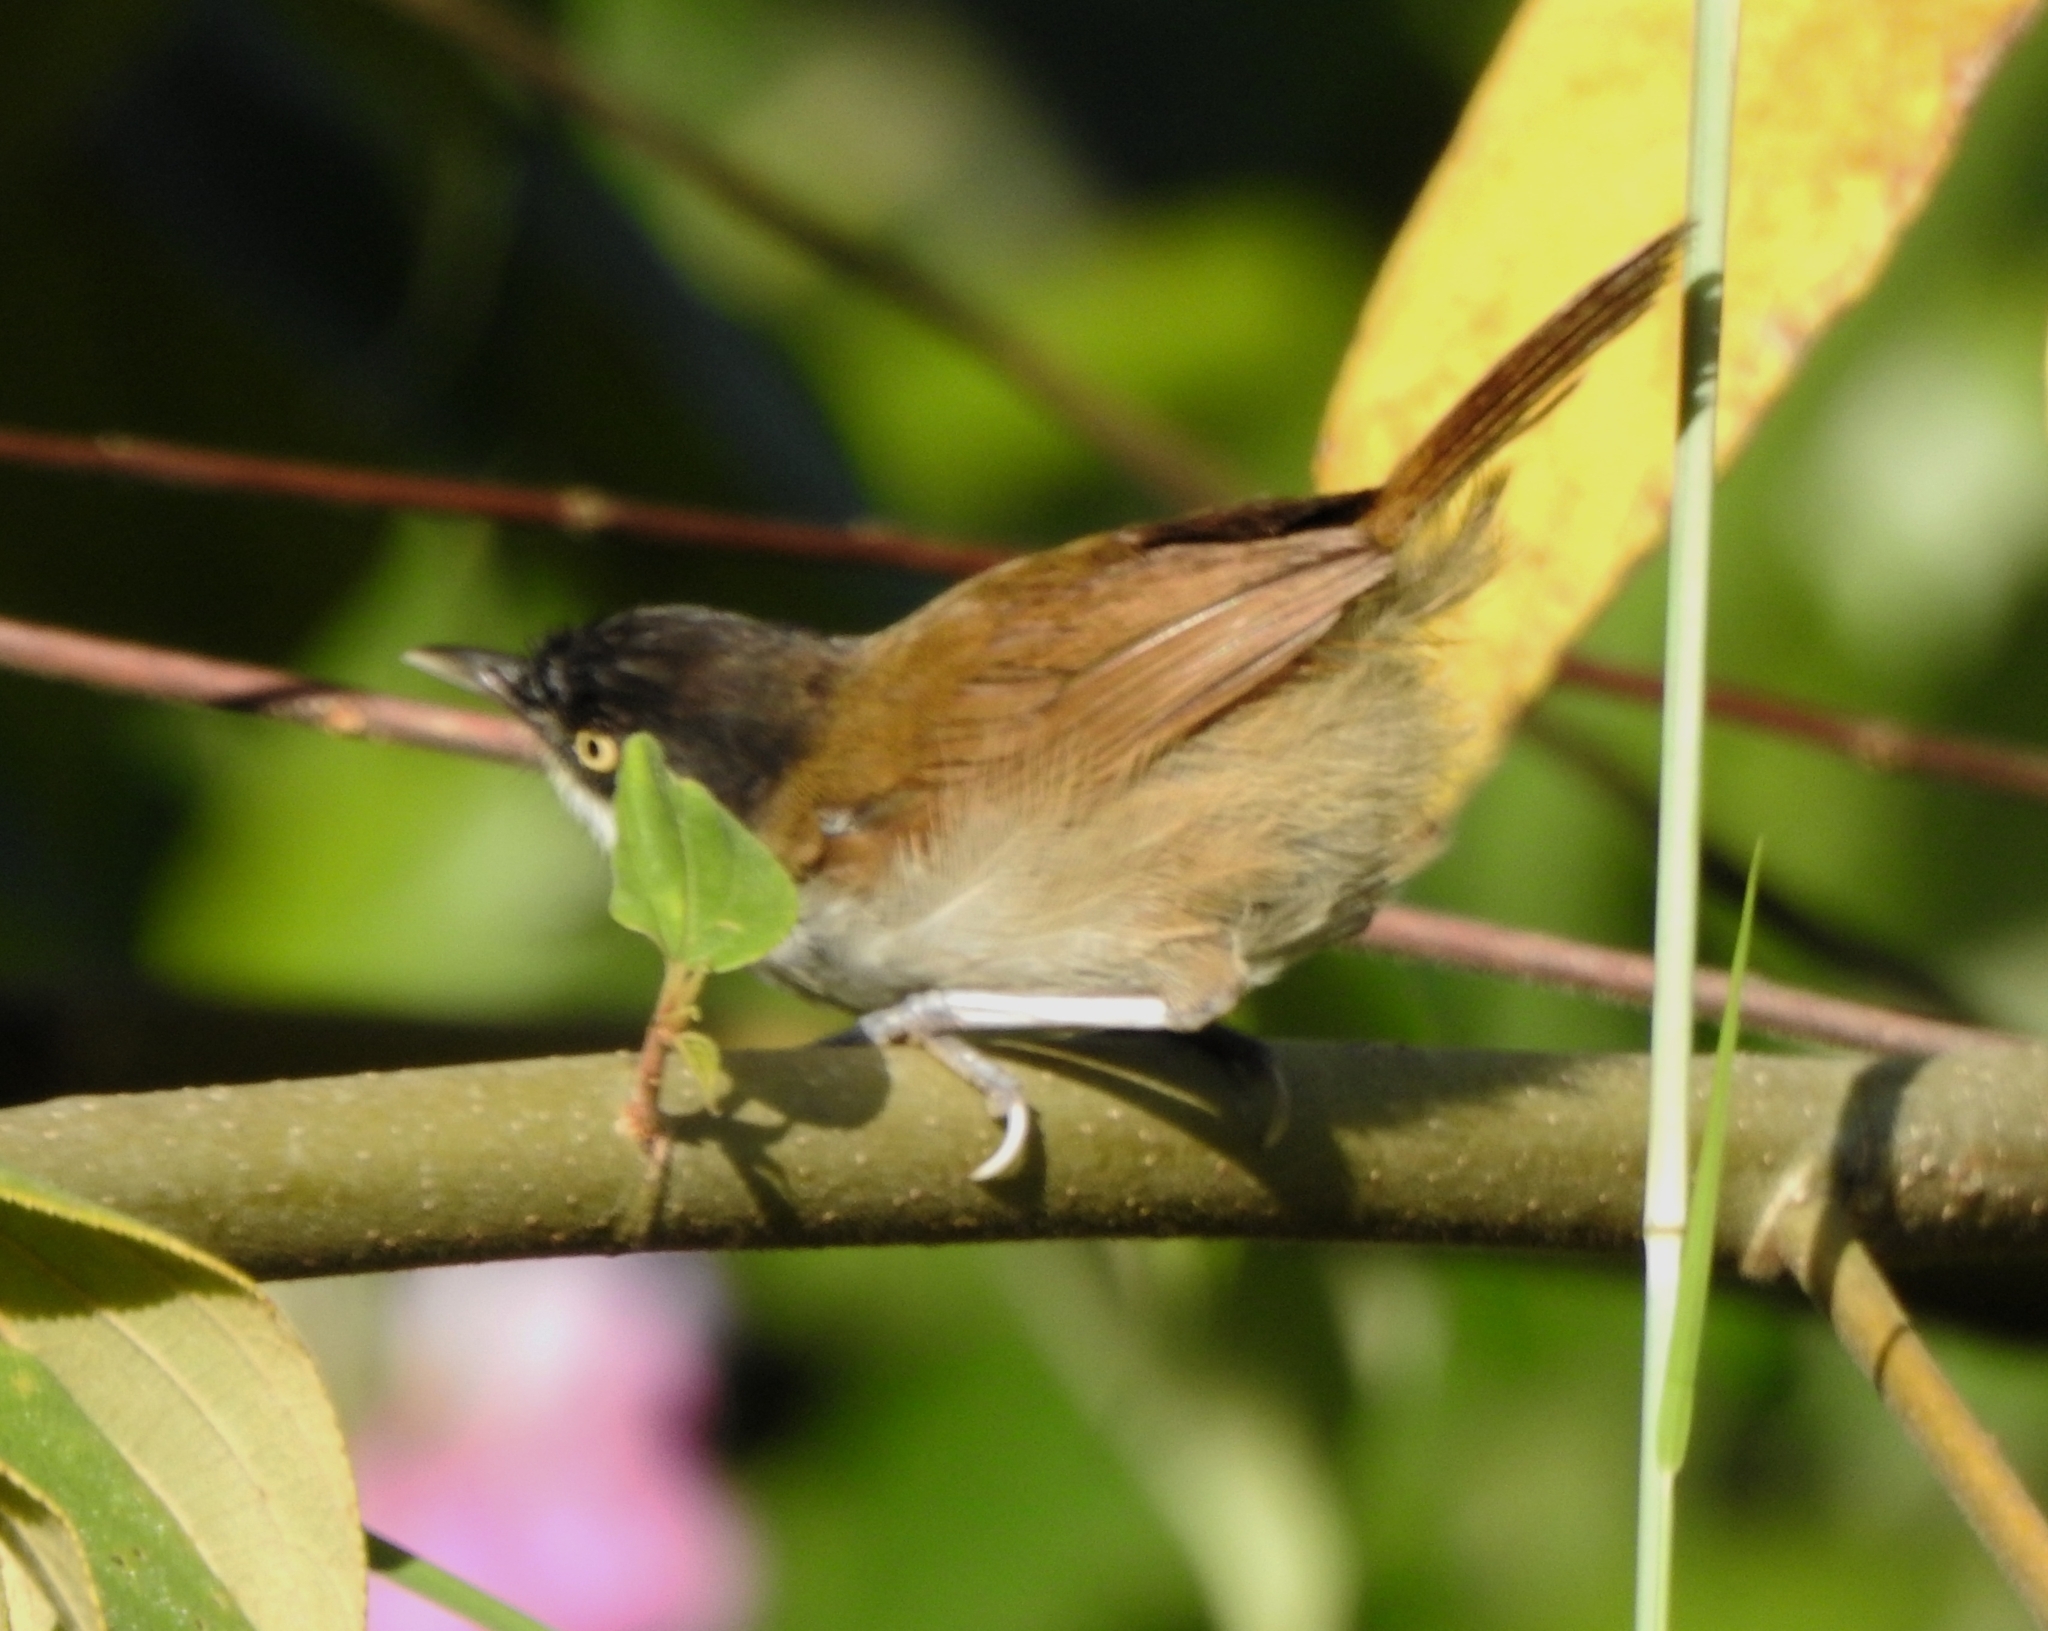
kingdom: Animalia
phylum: Chordata
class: Aves
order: Passeriformes
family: Timaliidae
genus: Rhopocichla
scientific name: Rhopocichla atriceps
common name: Dark-fronted babbler
